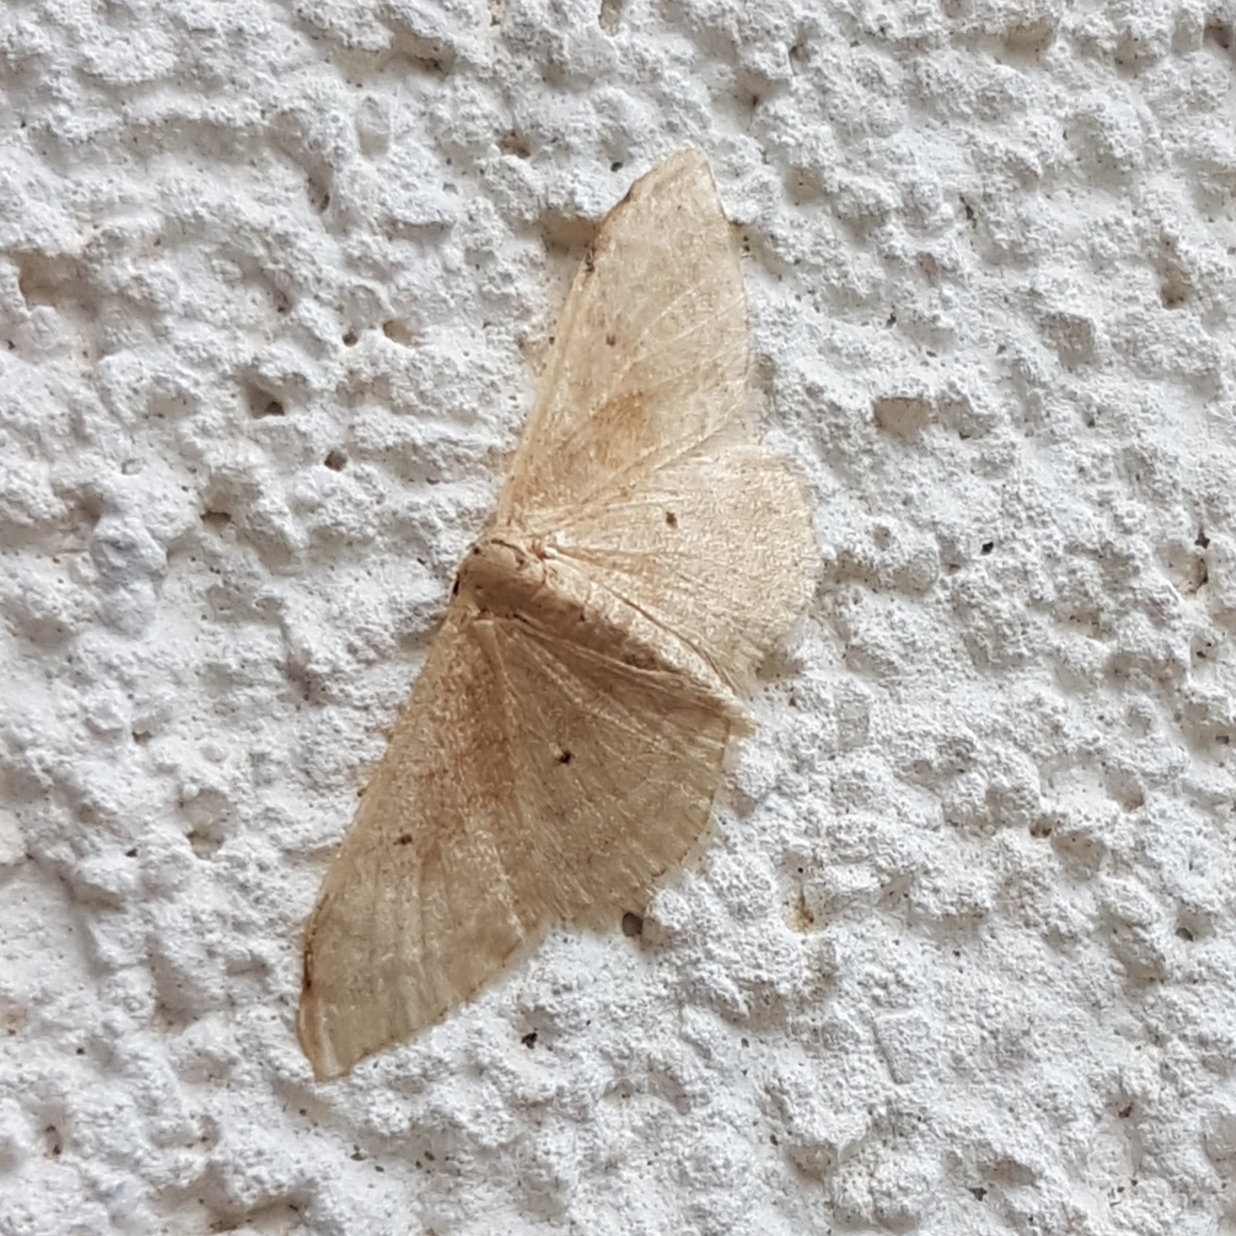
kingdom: Animalia
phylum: Arthropoda
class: Insecta
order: Lepidoptera
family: Geometridae
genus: Idaea
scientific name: Idaea degeneraria
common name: Portland ribbon wave
